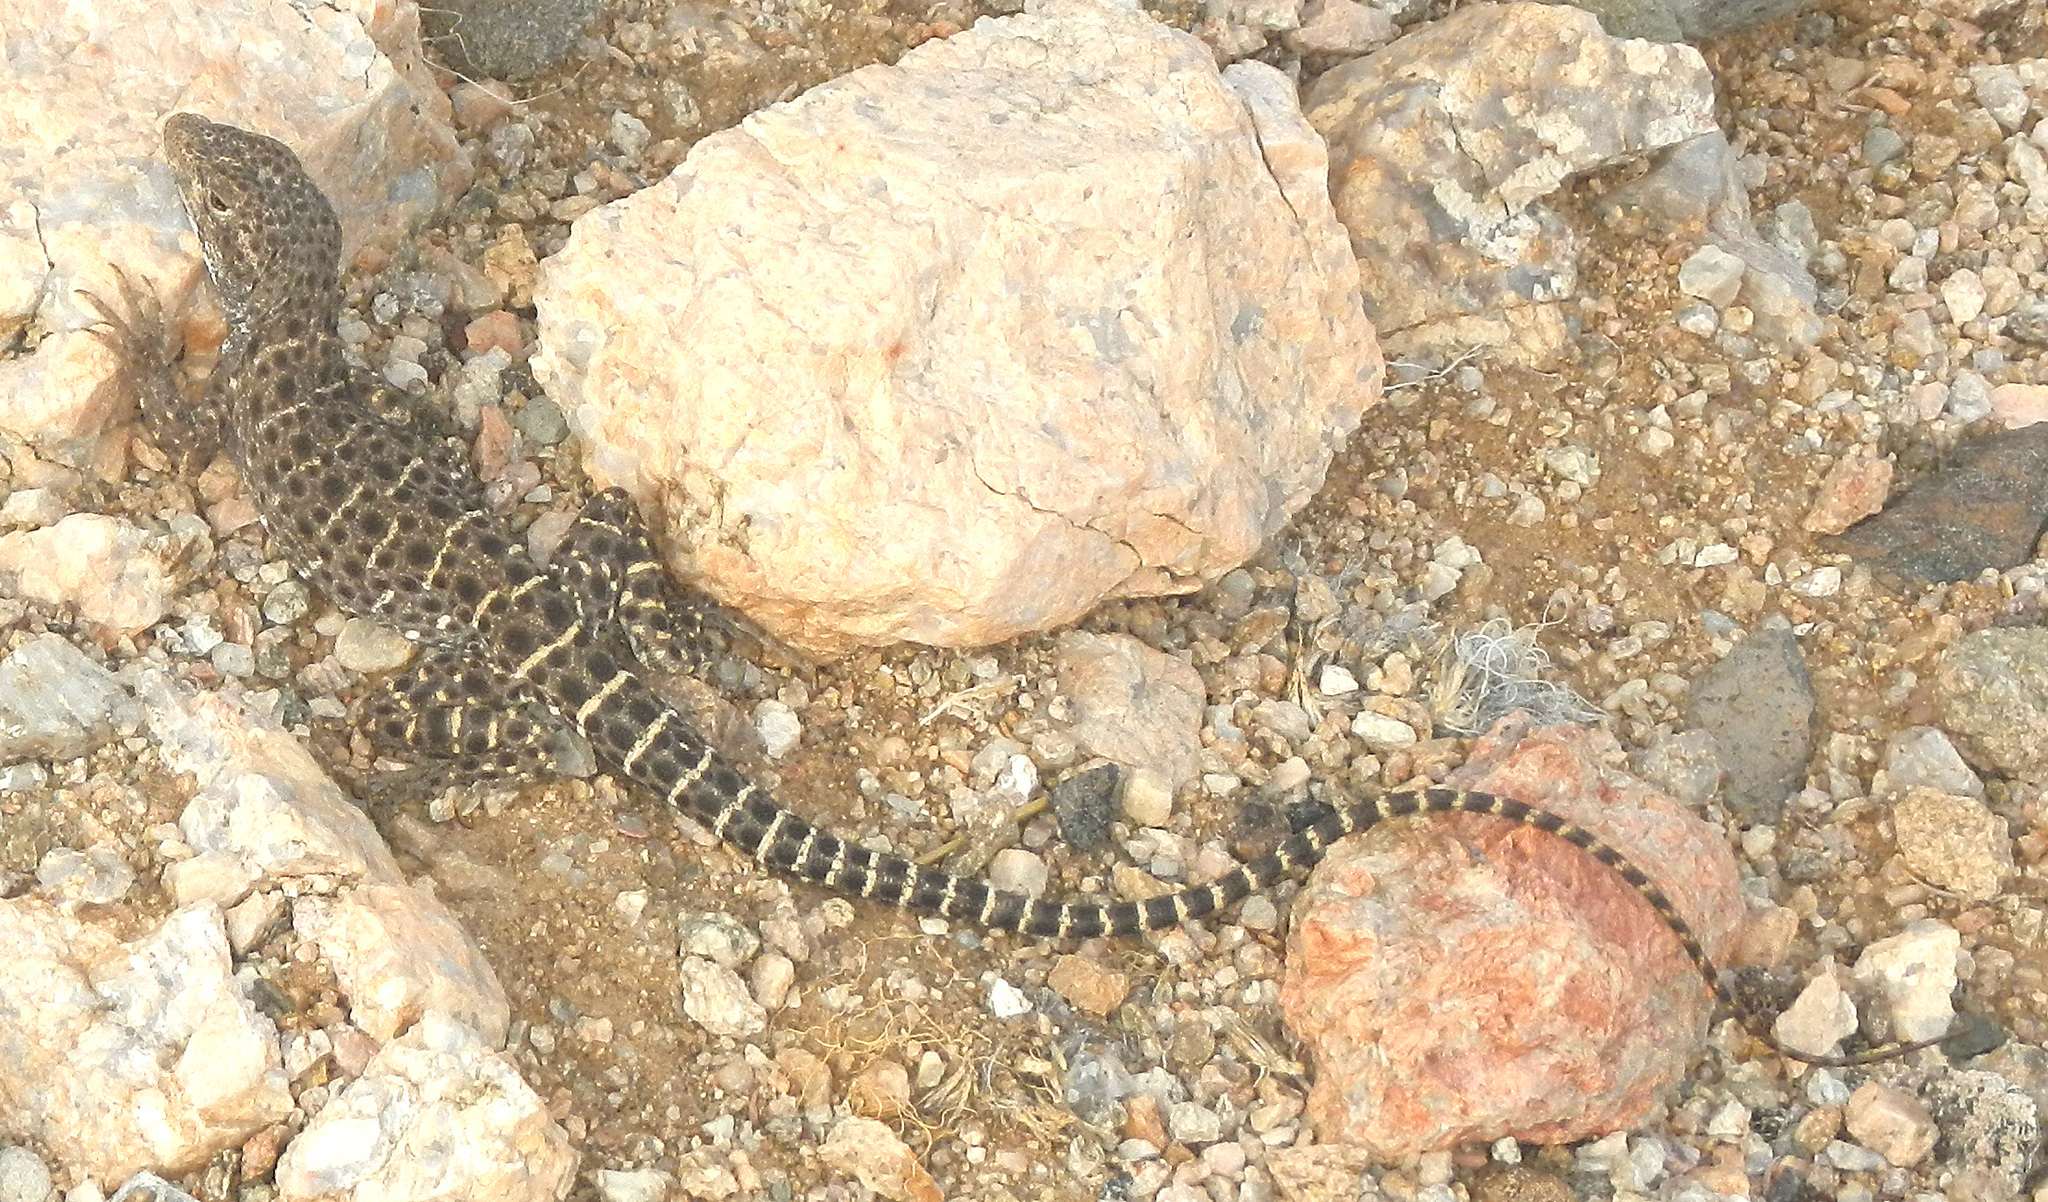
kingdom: Animalia
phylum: Chordata
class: Squamata
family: Crotaphytidae
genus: Gambelia
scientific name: Gambelia wislizenii
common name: Longnose leopard lizard
